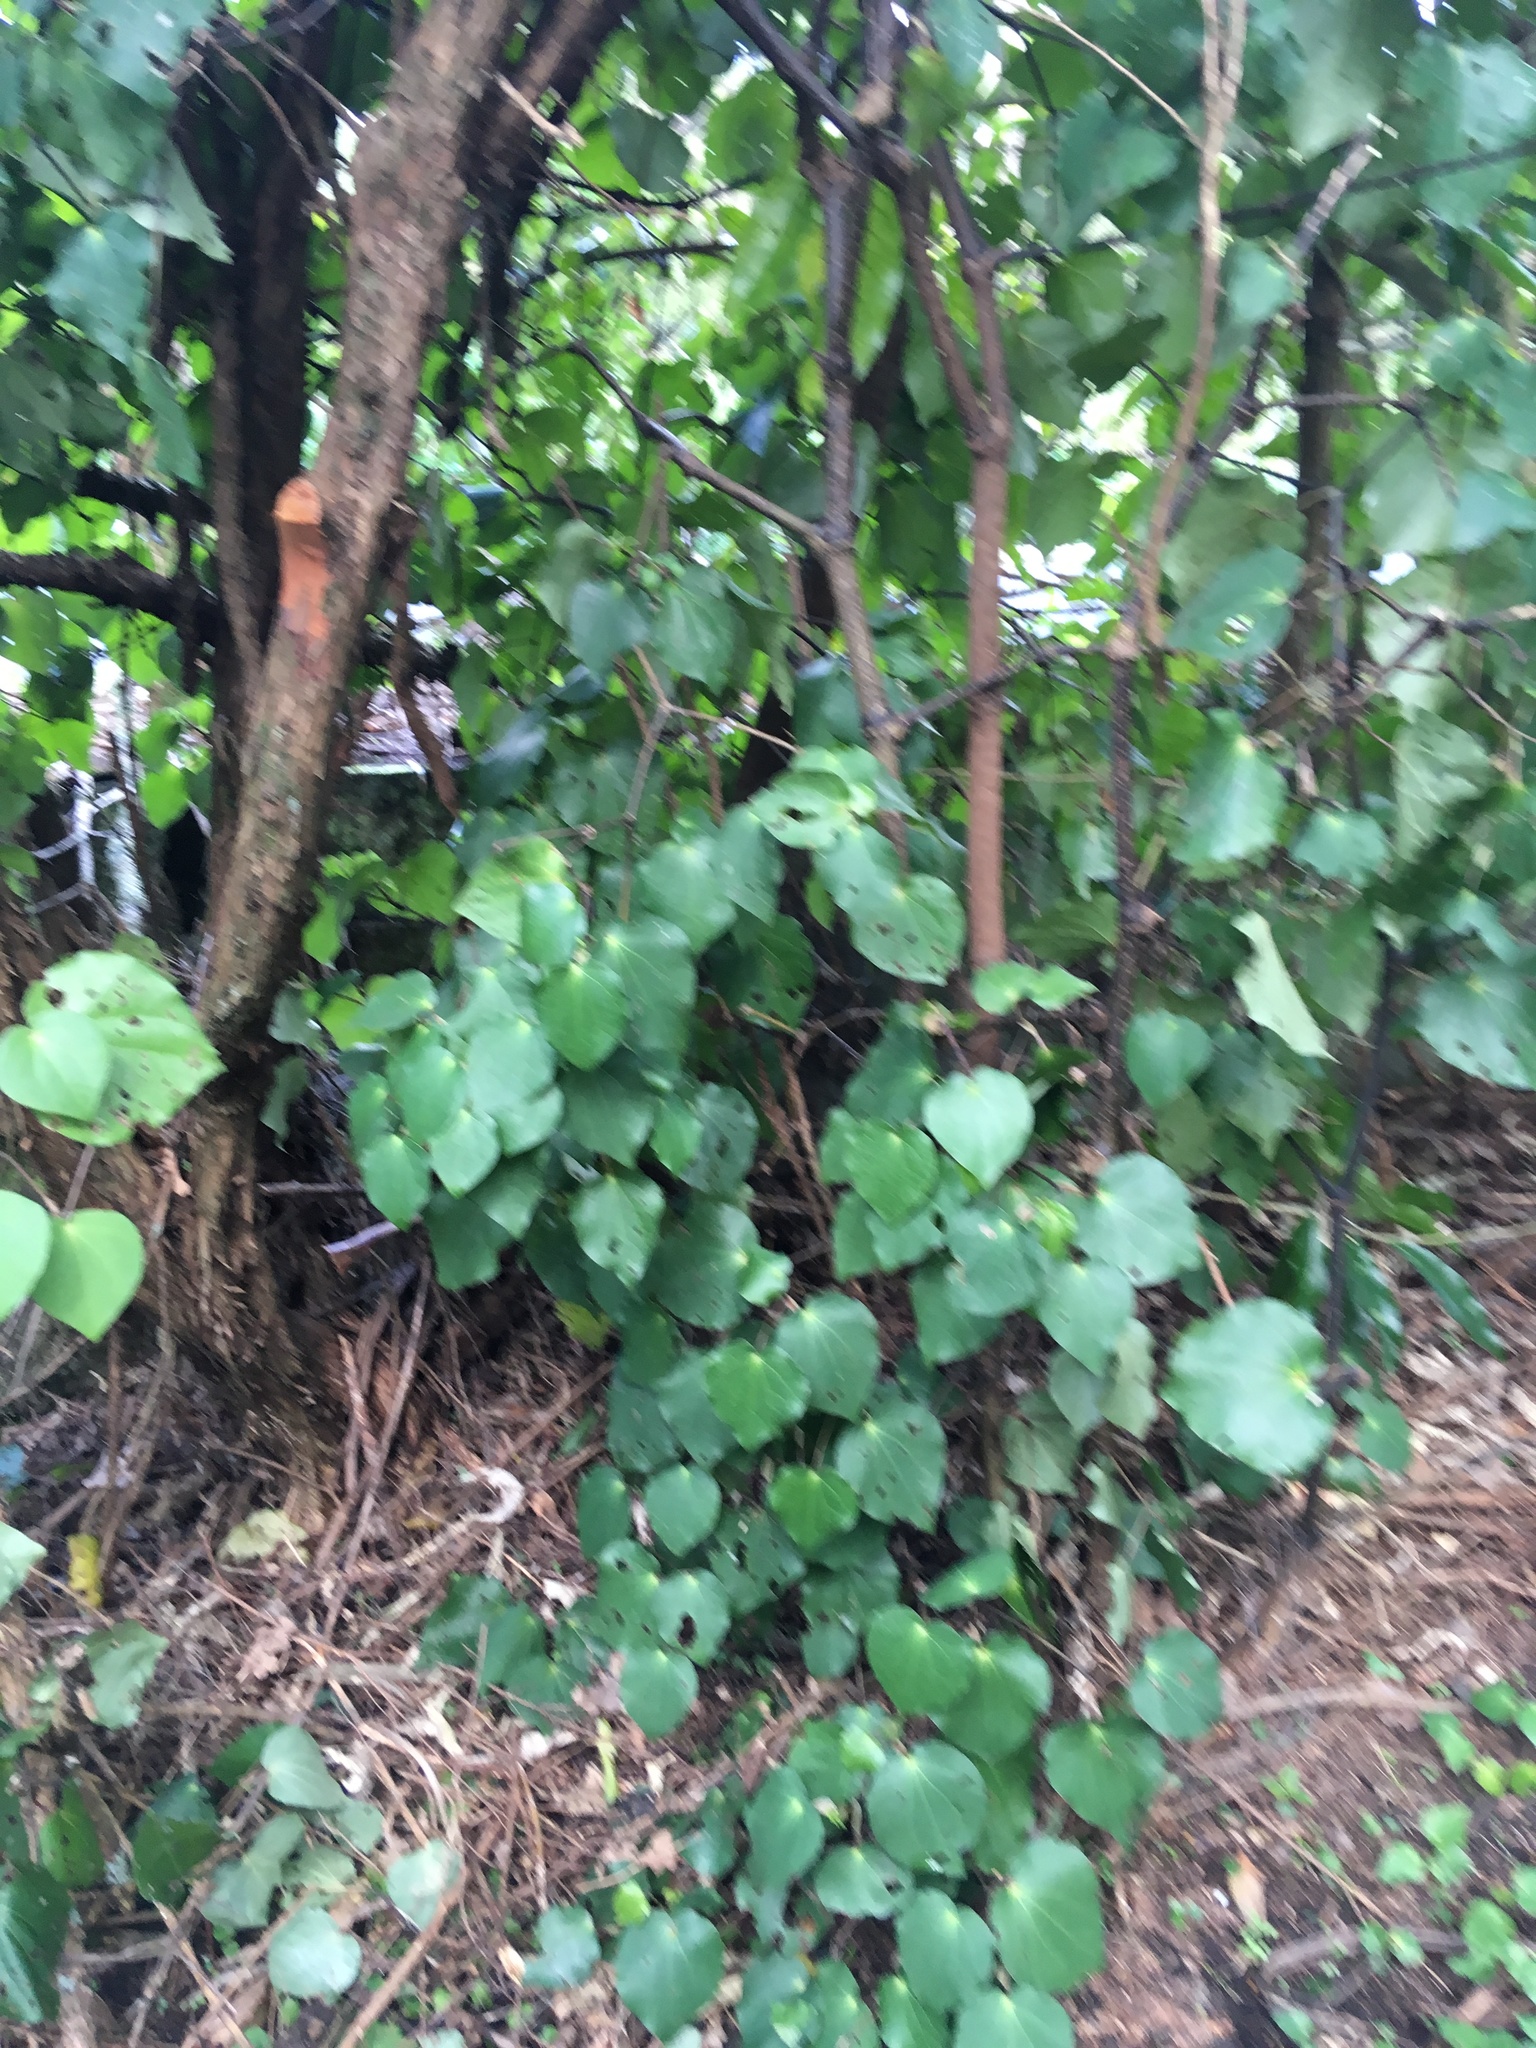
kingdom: Plantae
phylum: Tracheophyta
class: Magnoliopsida
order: Piperales
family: Piperaceae
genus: Macropiper
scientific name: Macropiper excelsum
